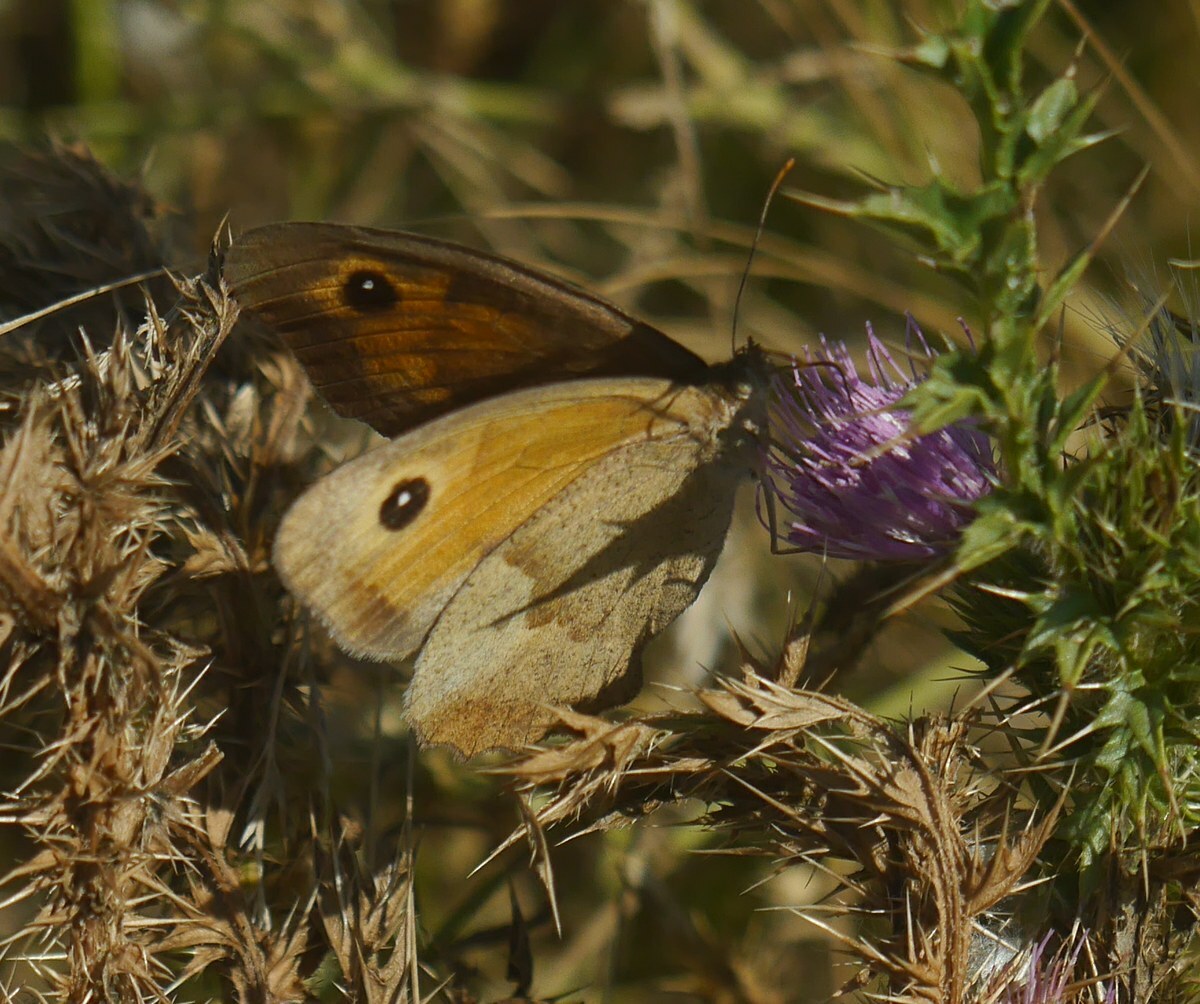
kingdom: Animalia
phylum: Arthropoda
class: Insecta
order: Lepidoptera
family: Nymphalidae
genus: Maniola
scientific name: Maniola jurtina
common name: Meadow brown
